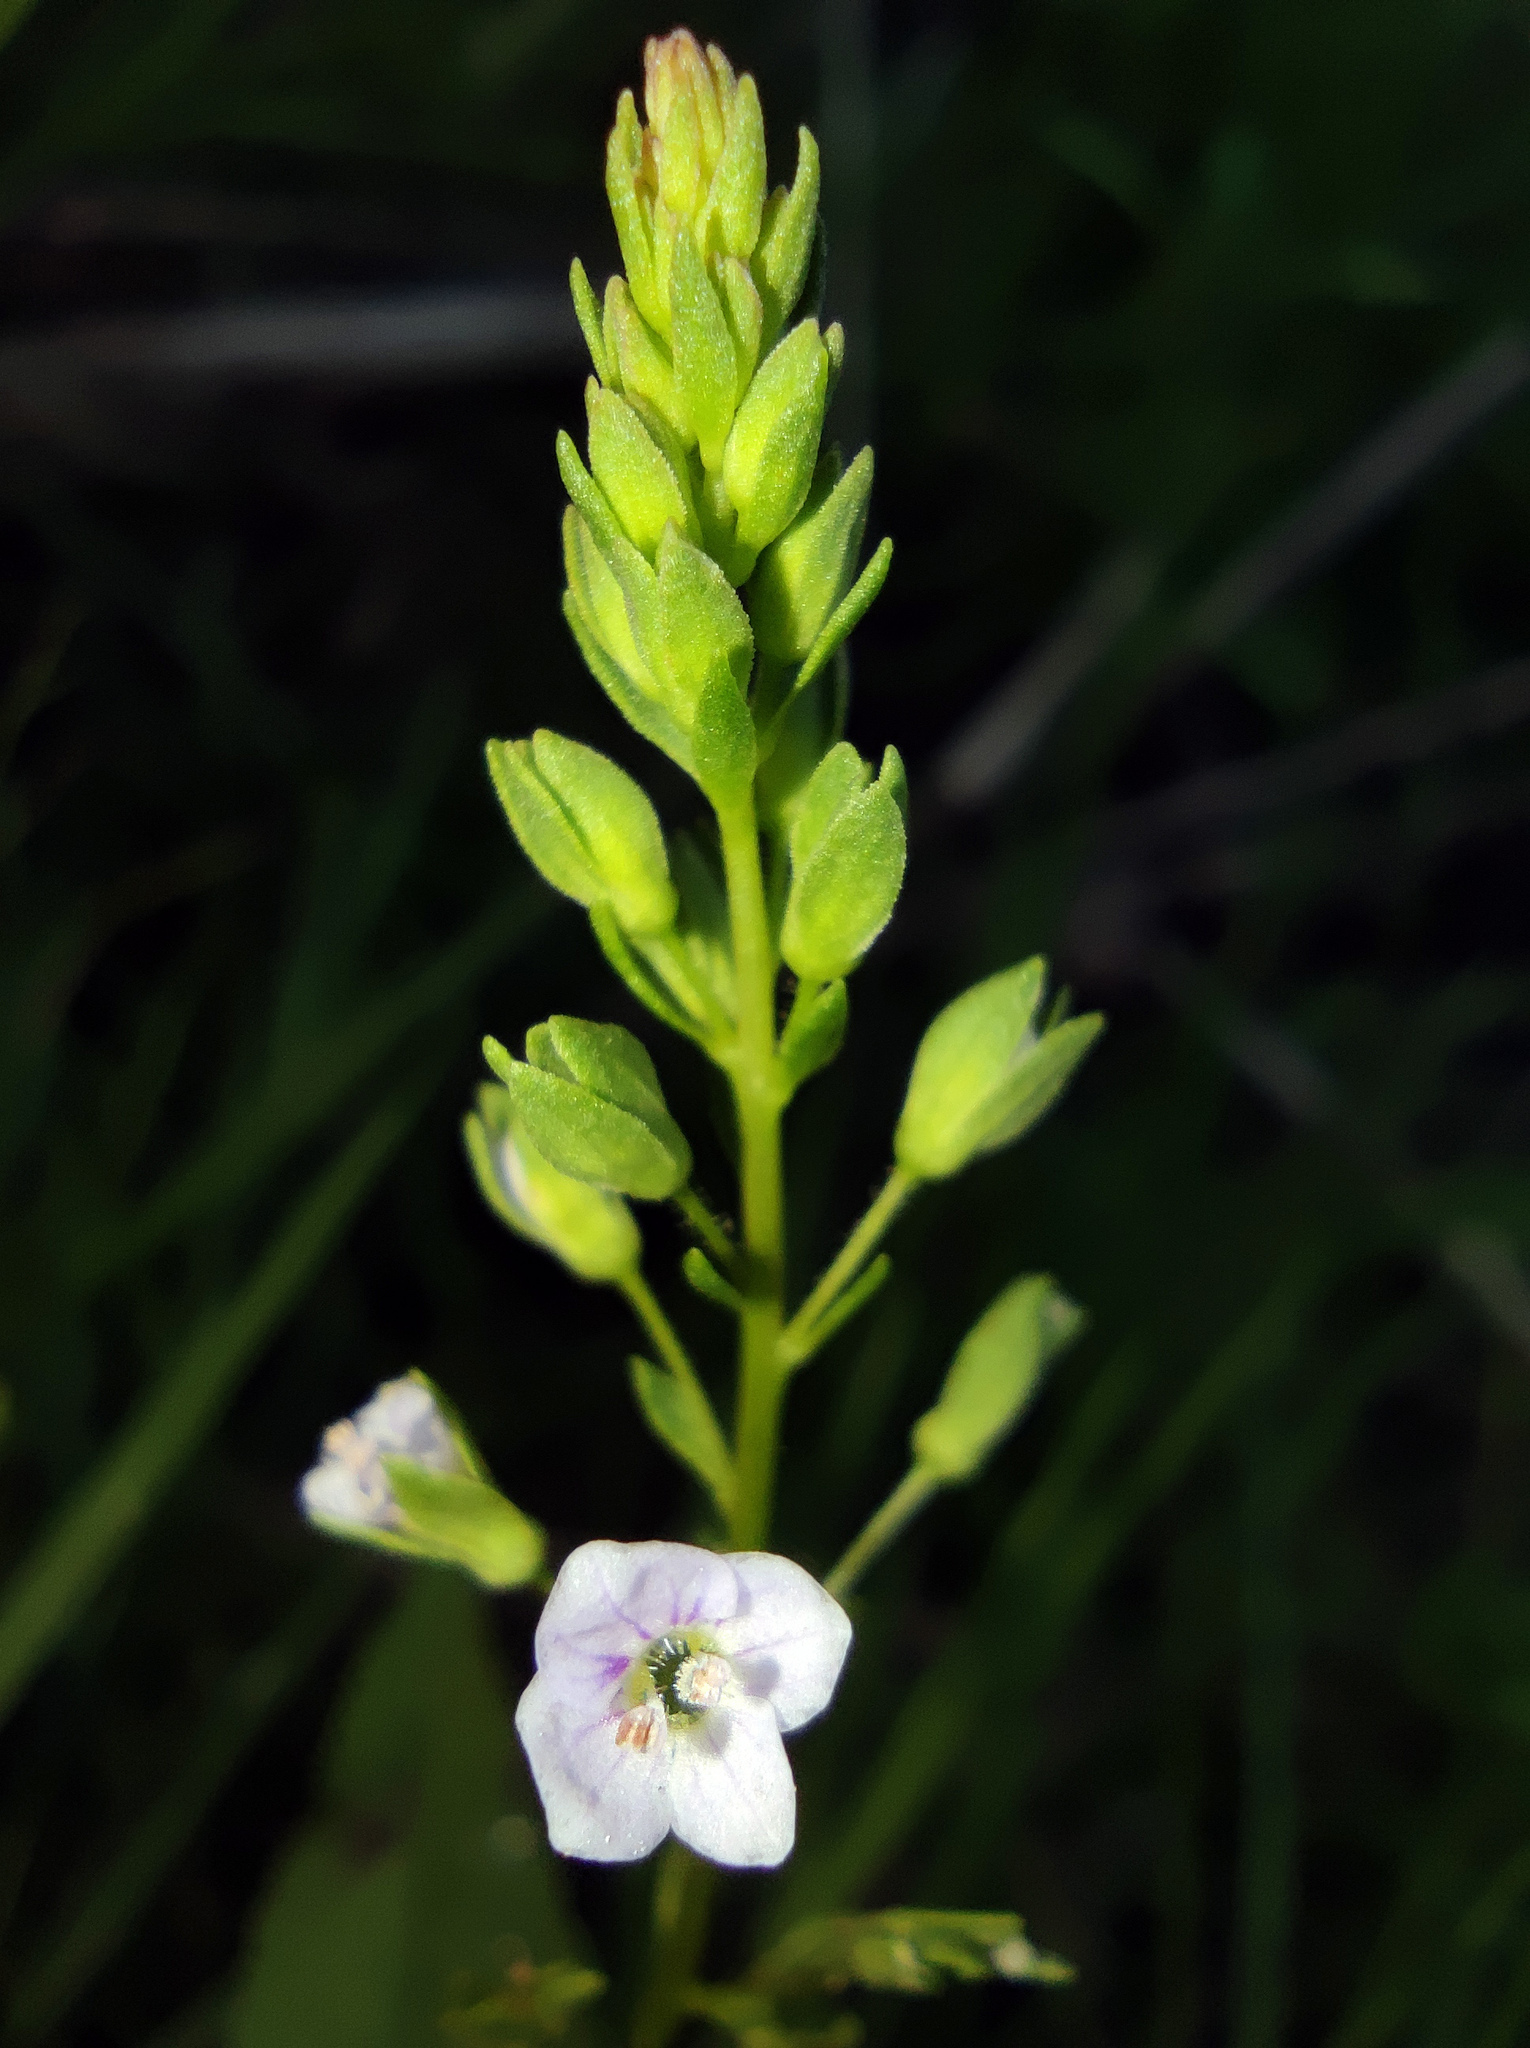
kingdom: Plantae
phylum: Tracheophyta
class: Magnoliopsida
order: Lamiales
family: Plantaginaceae
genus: Veronica
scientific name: Veronica anagallis-aquatica
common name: Water speedwell
